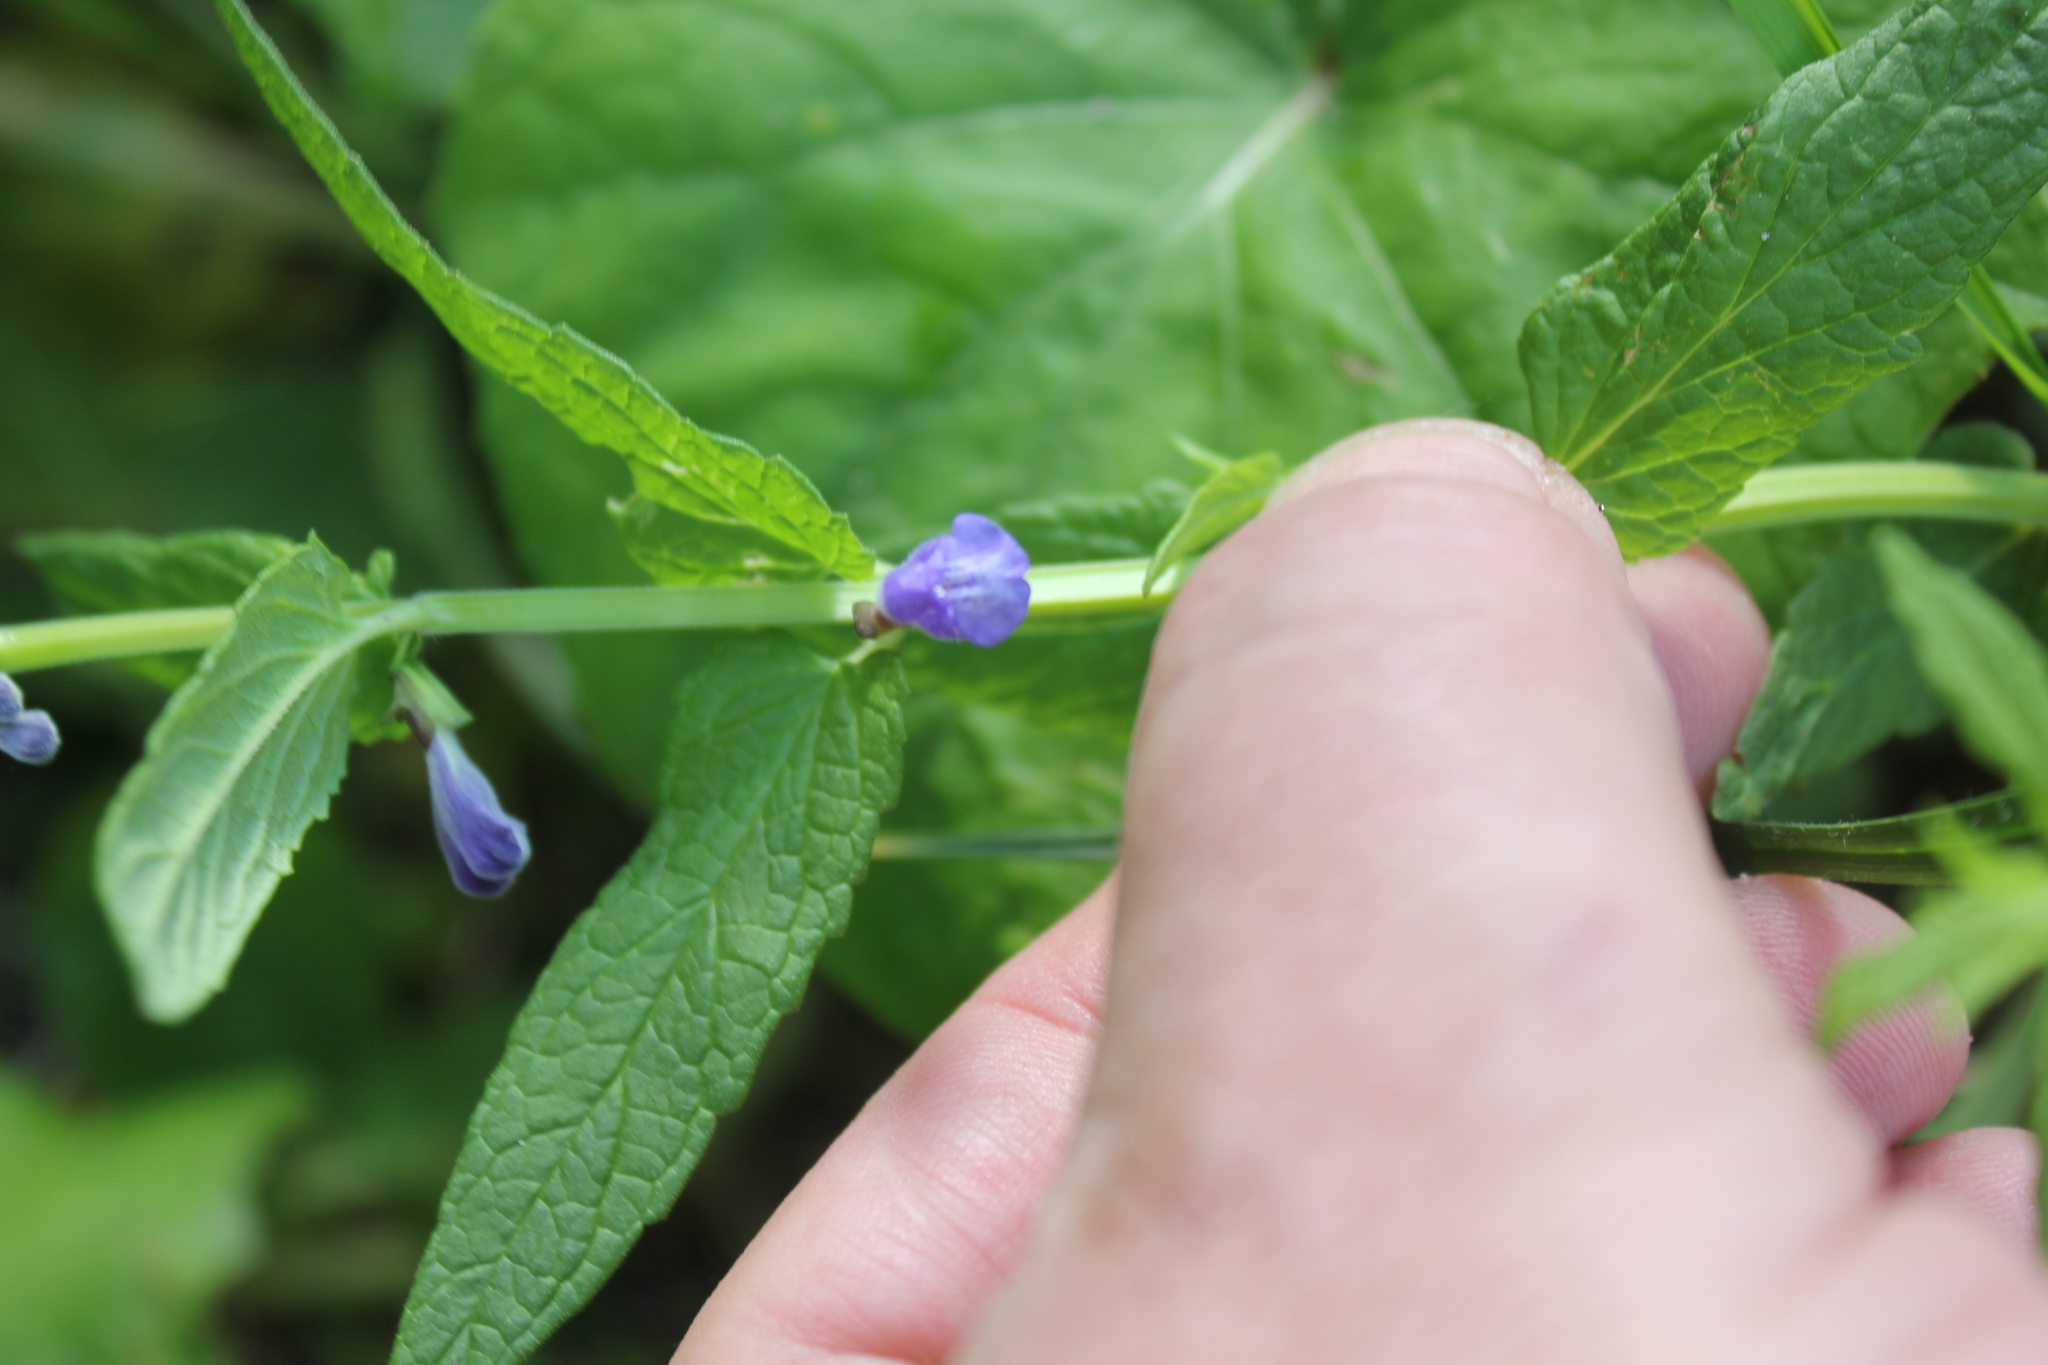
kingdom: Plantae
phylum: Tracheophyta
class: Magnoliopsida
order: Lamiales
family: Lamiaceae
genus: Scutellaria
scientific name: Scutellaria galericulata
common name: Skullcap
